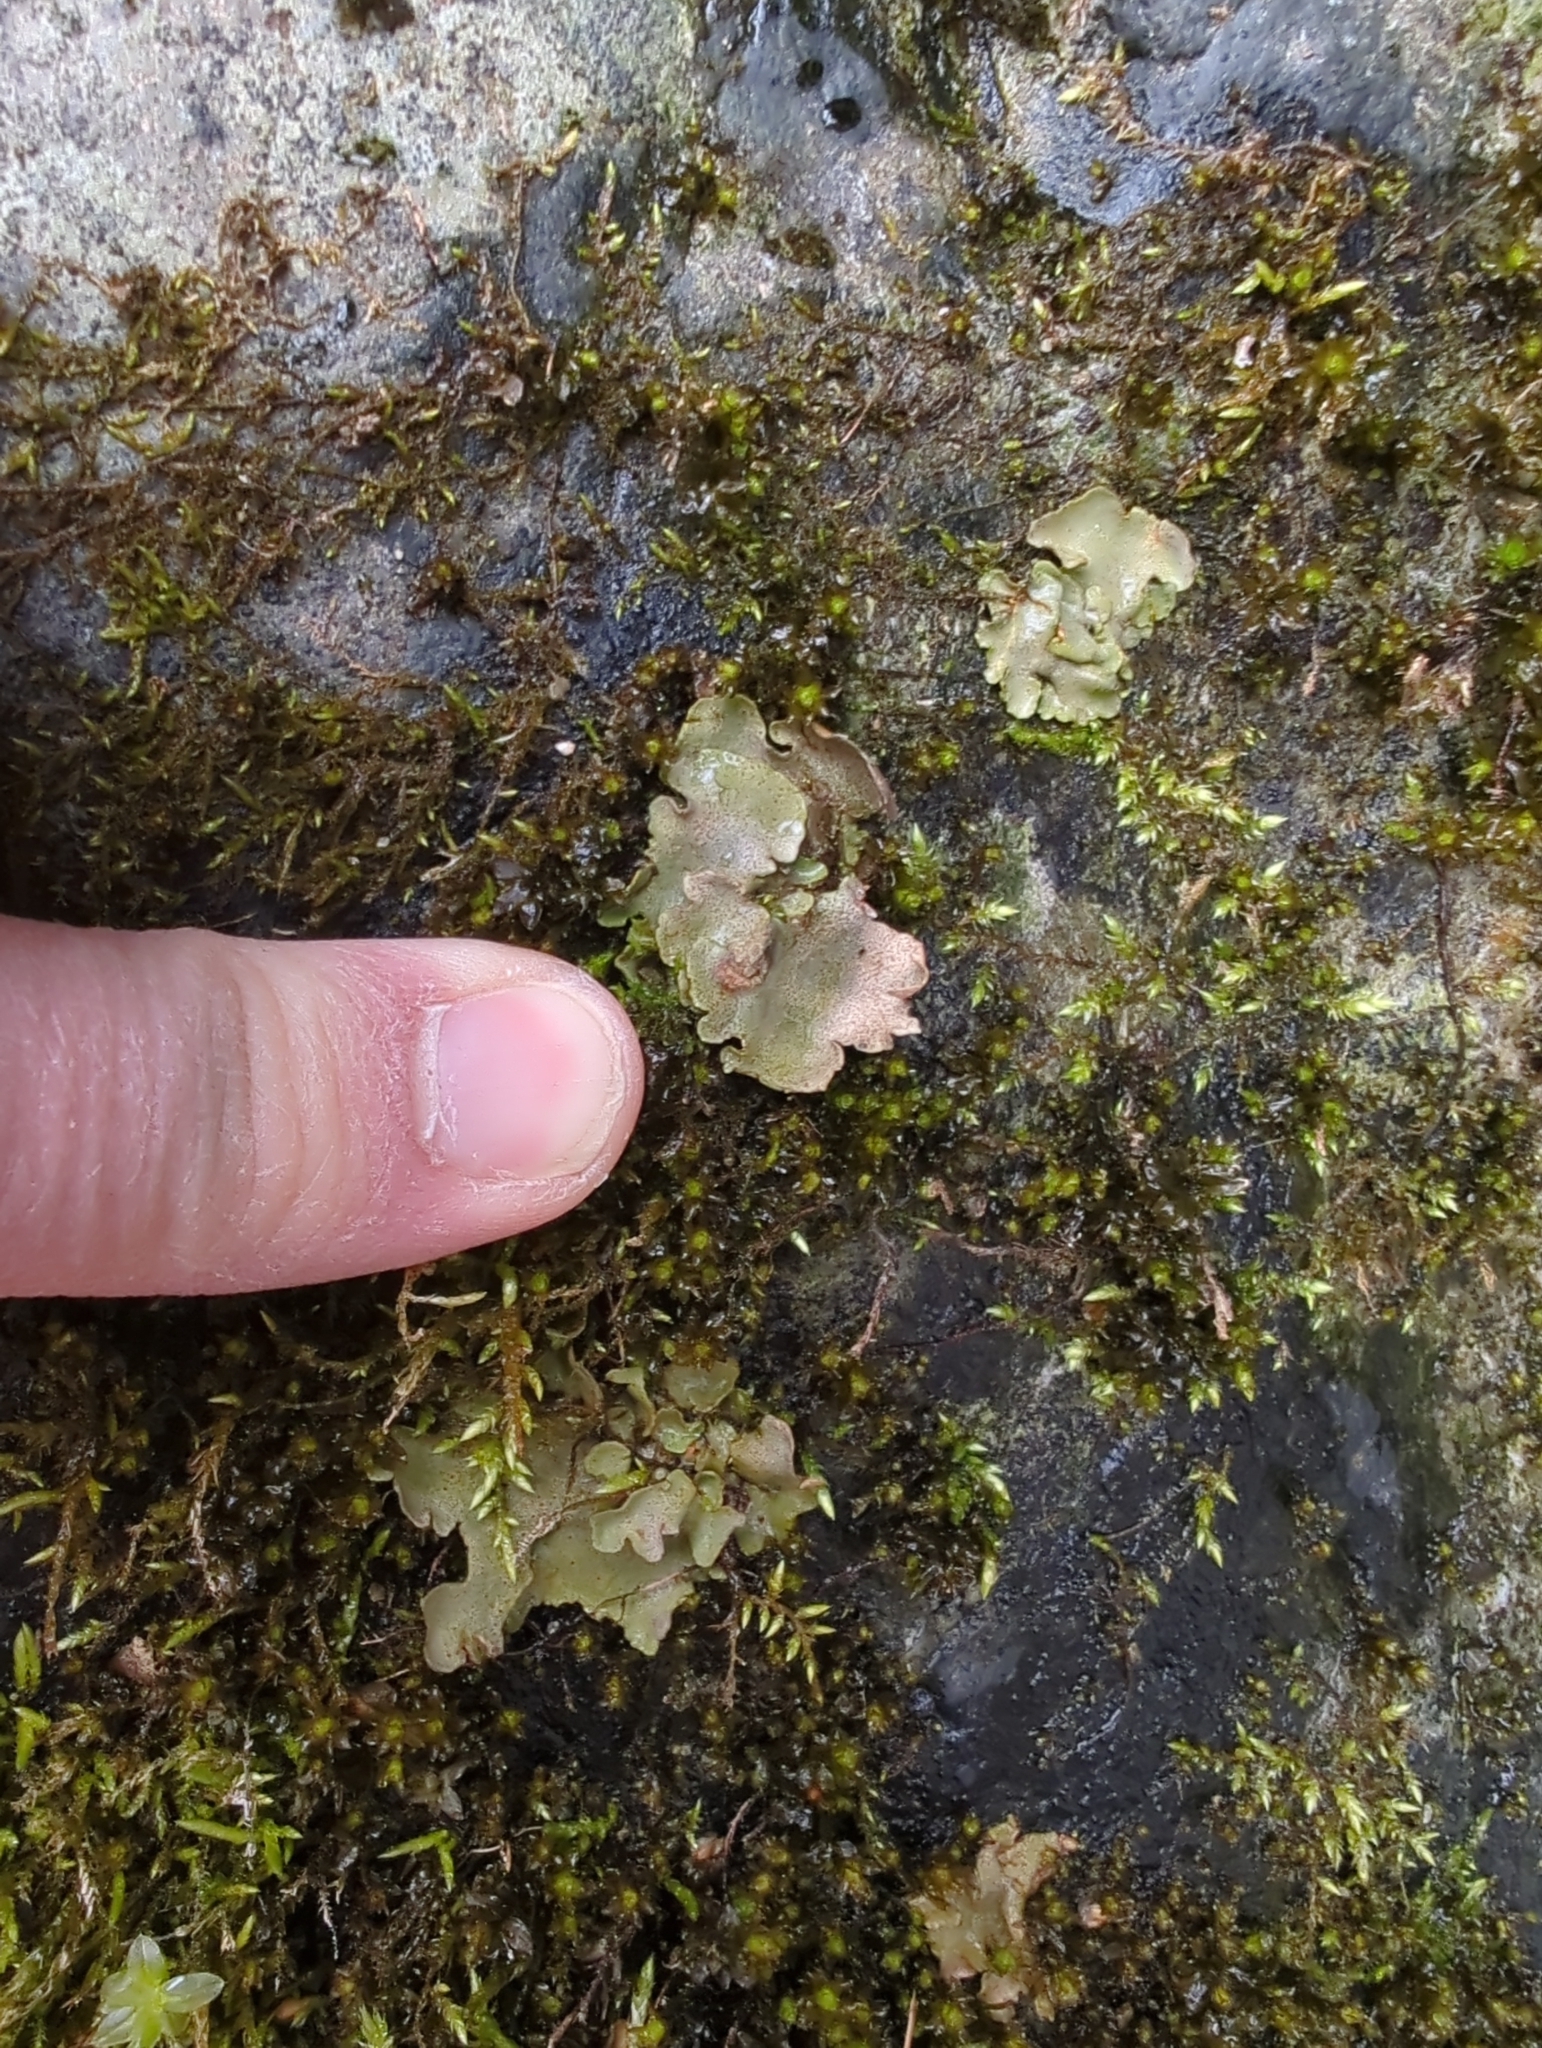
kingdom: Fungi
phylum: Ascomycota
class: Eurotiomycetes
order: Verrucariales
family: Verrucariaceae
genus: Dermatocarpon
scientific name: Dermatocarpon luridum
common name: Brook stippleback lichen
